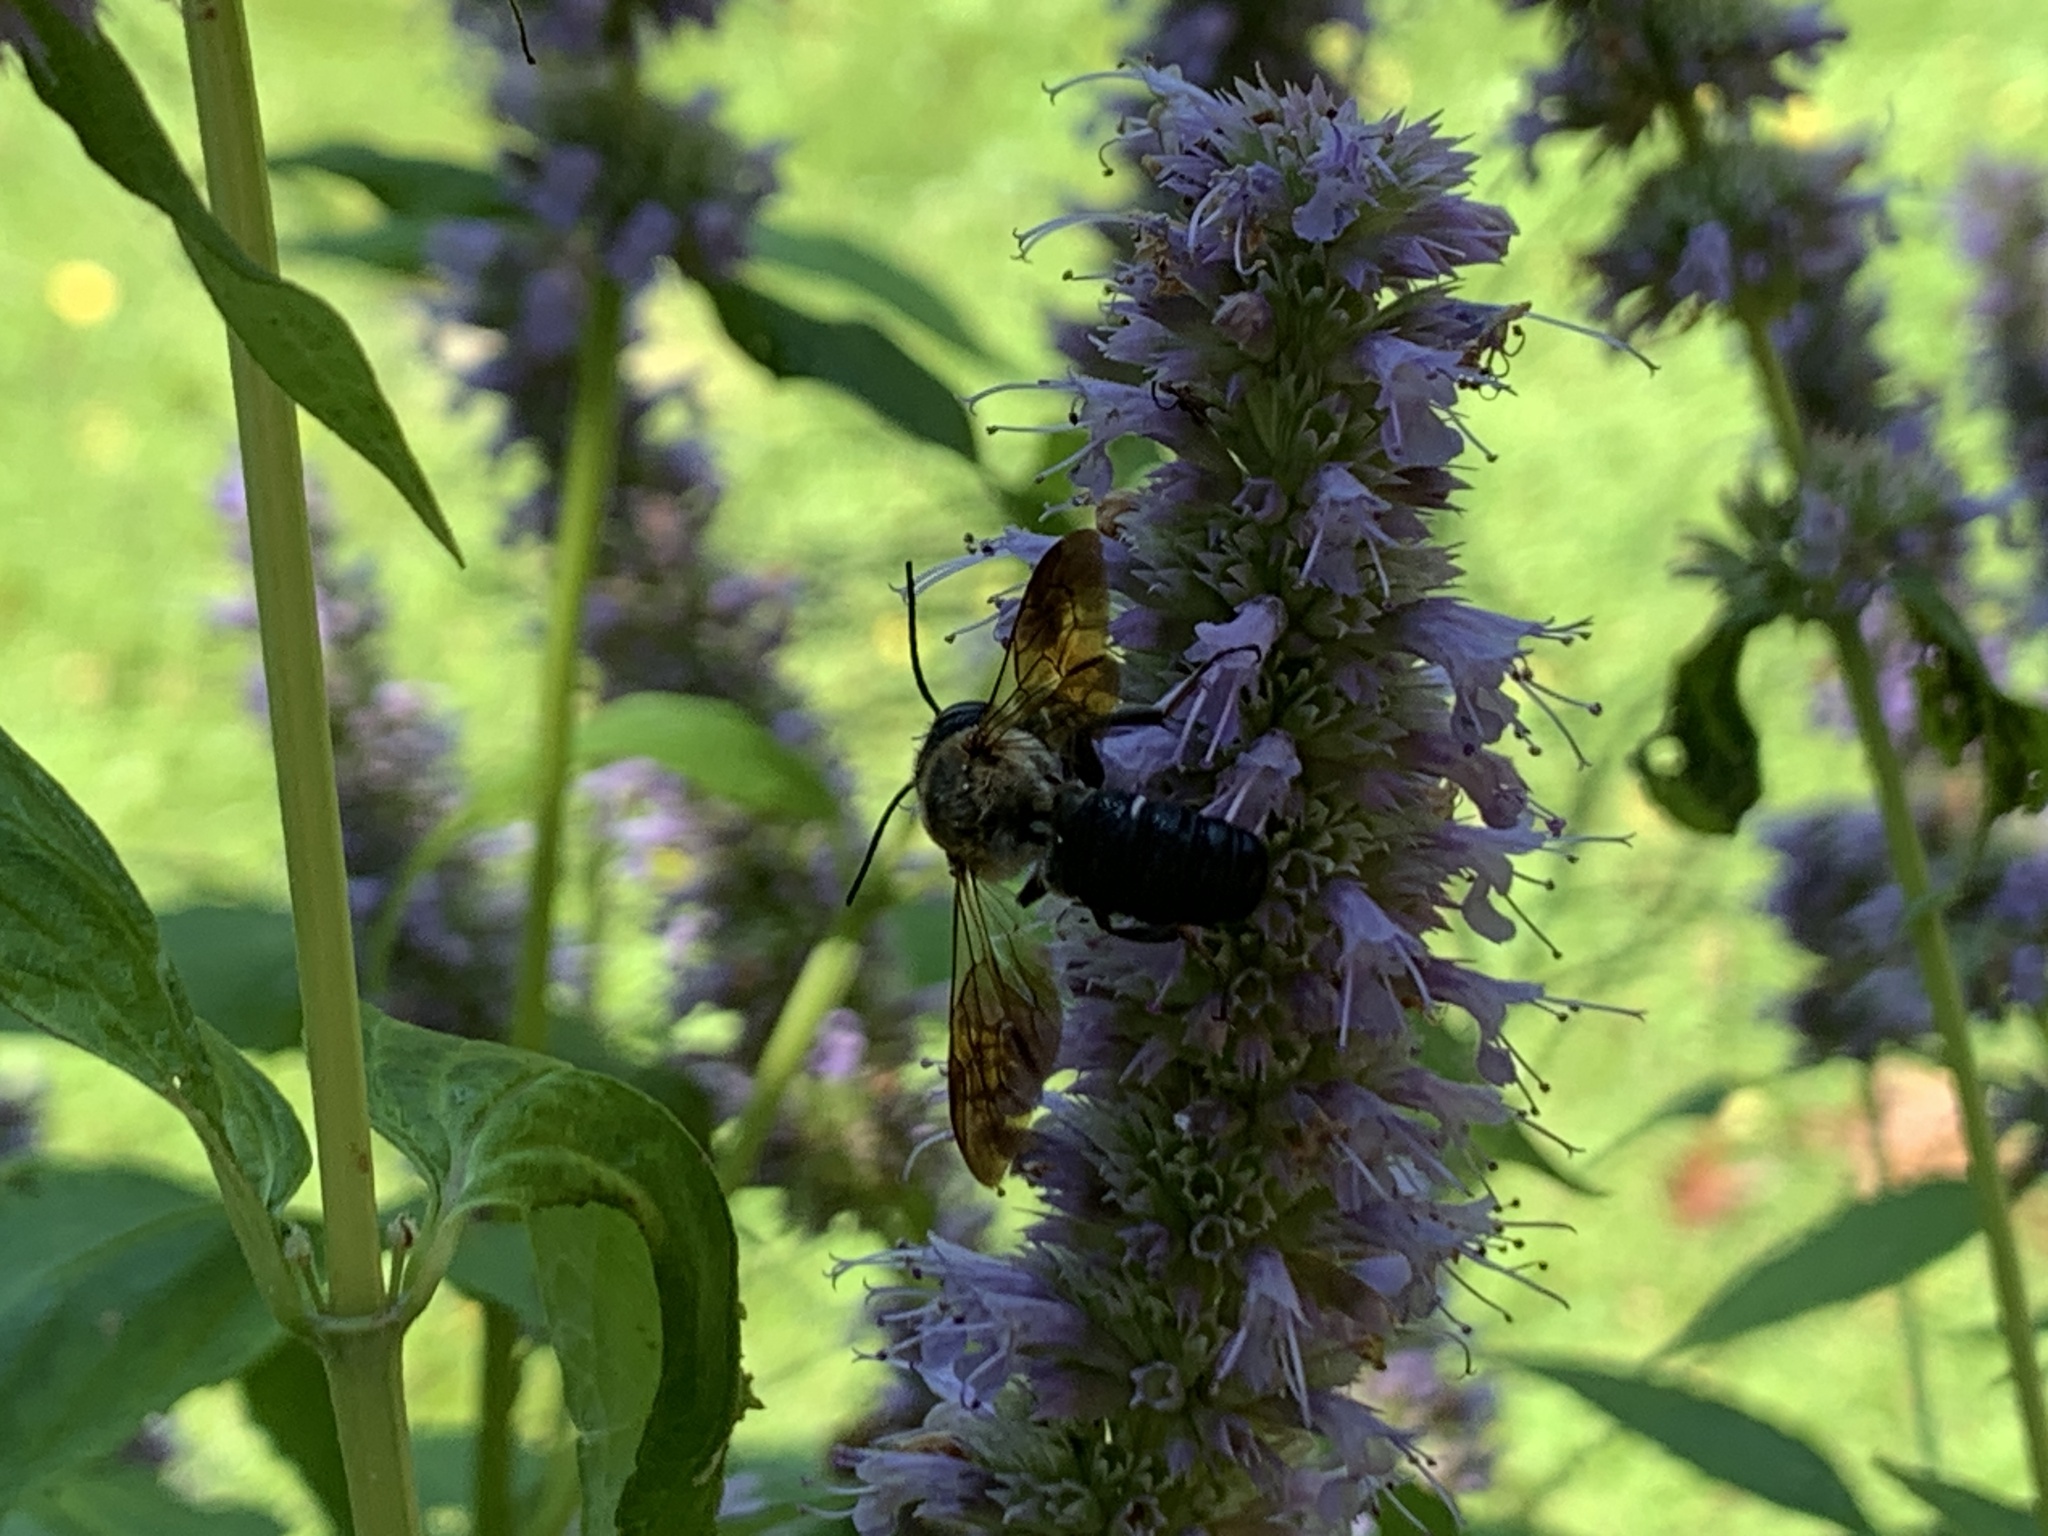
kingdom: Animalia
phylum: Arthropoda
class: Insecta
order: Hymenoptera
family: Megachilidae
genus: Megachile
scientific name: Megachile sculpturalis
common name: Sculptured resin bee
